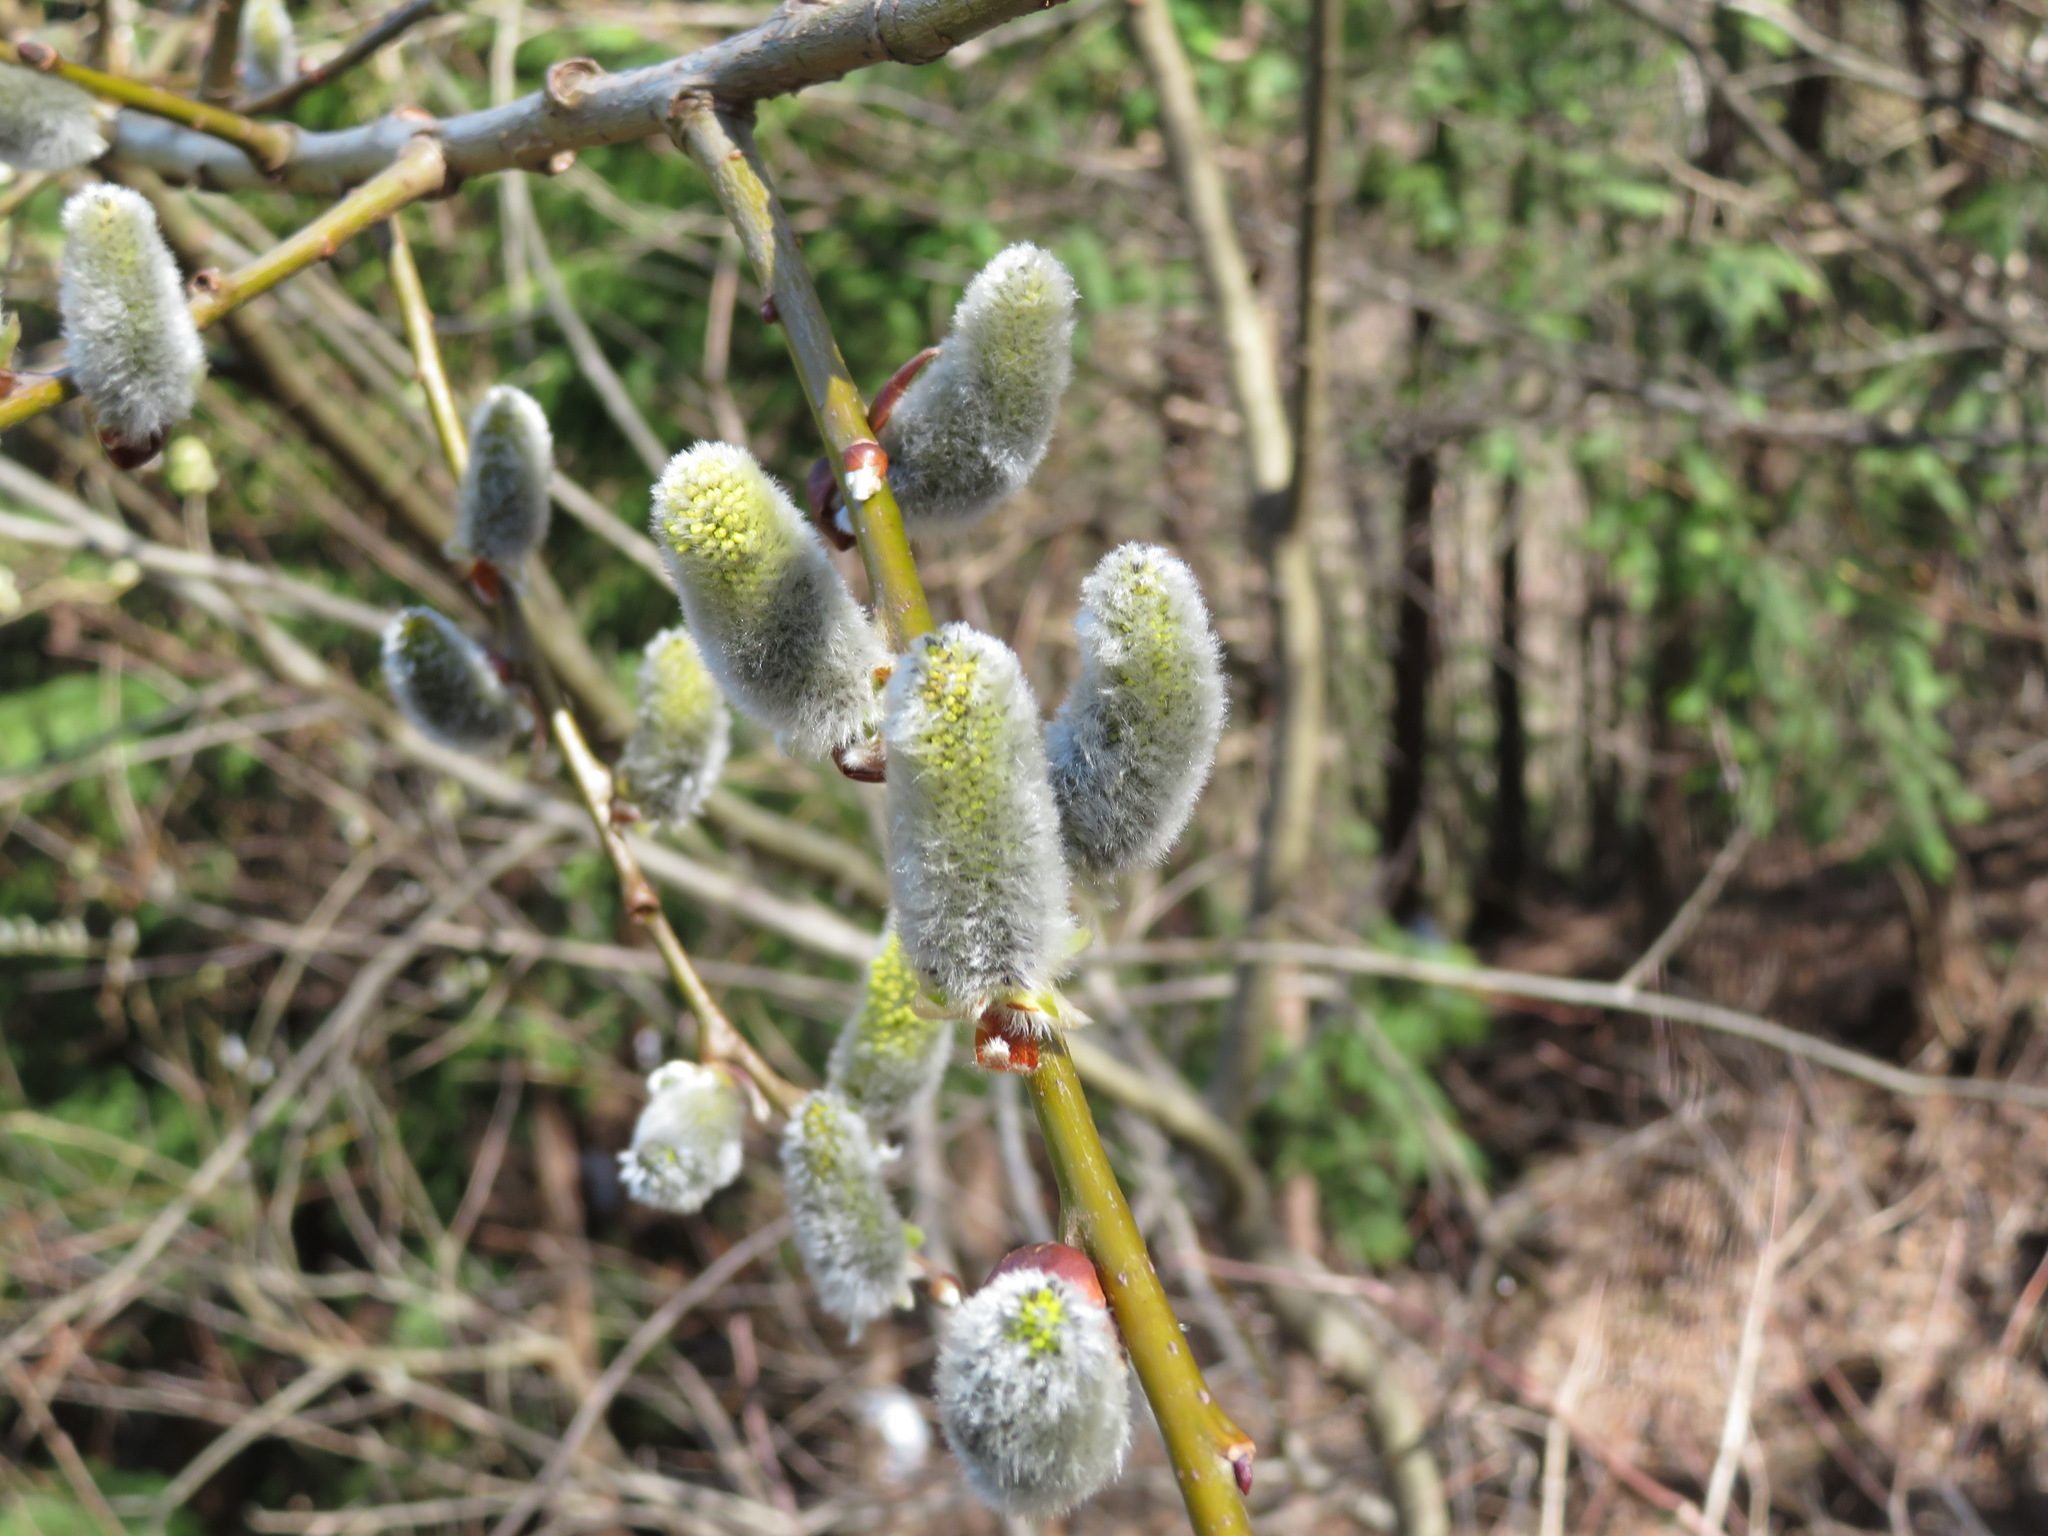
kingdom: Plantae
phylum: Tracheophyta
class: Magnoliopsida
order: Malpighiales
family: Salicaceae
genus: Salix
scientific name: Salix caprea
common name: Goat willow
